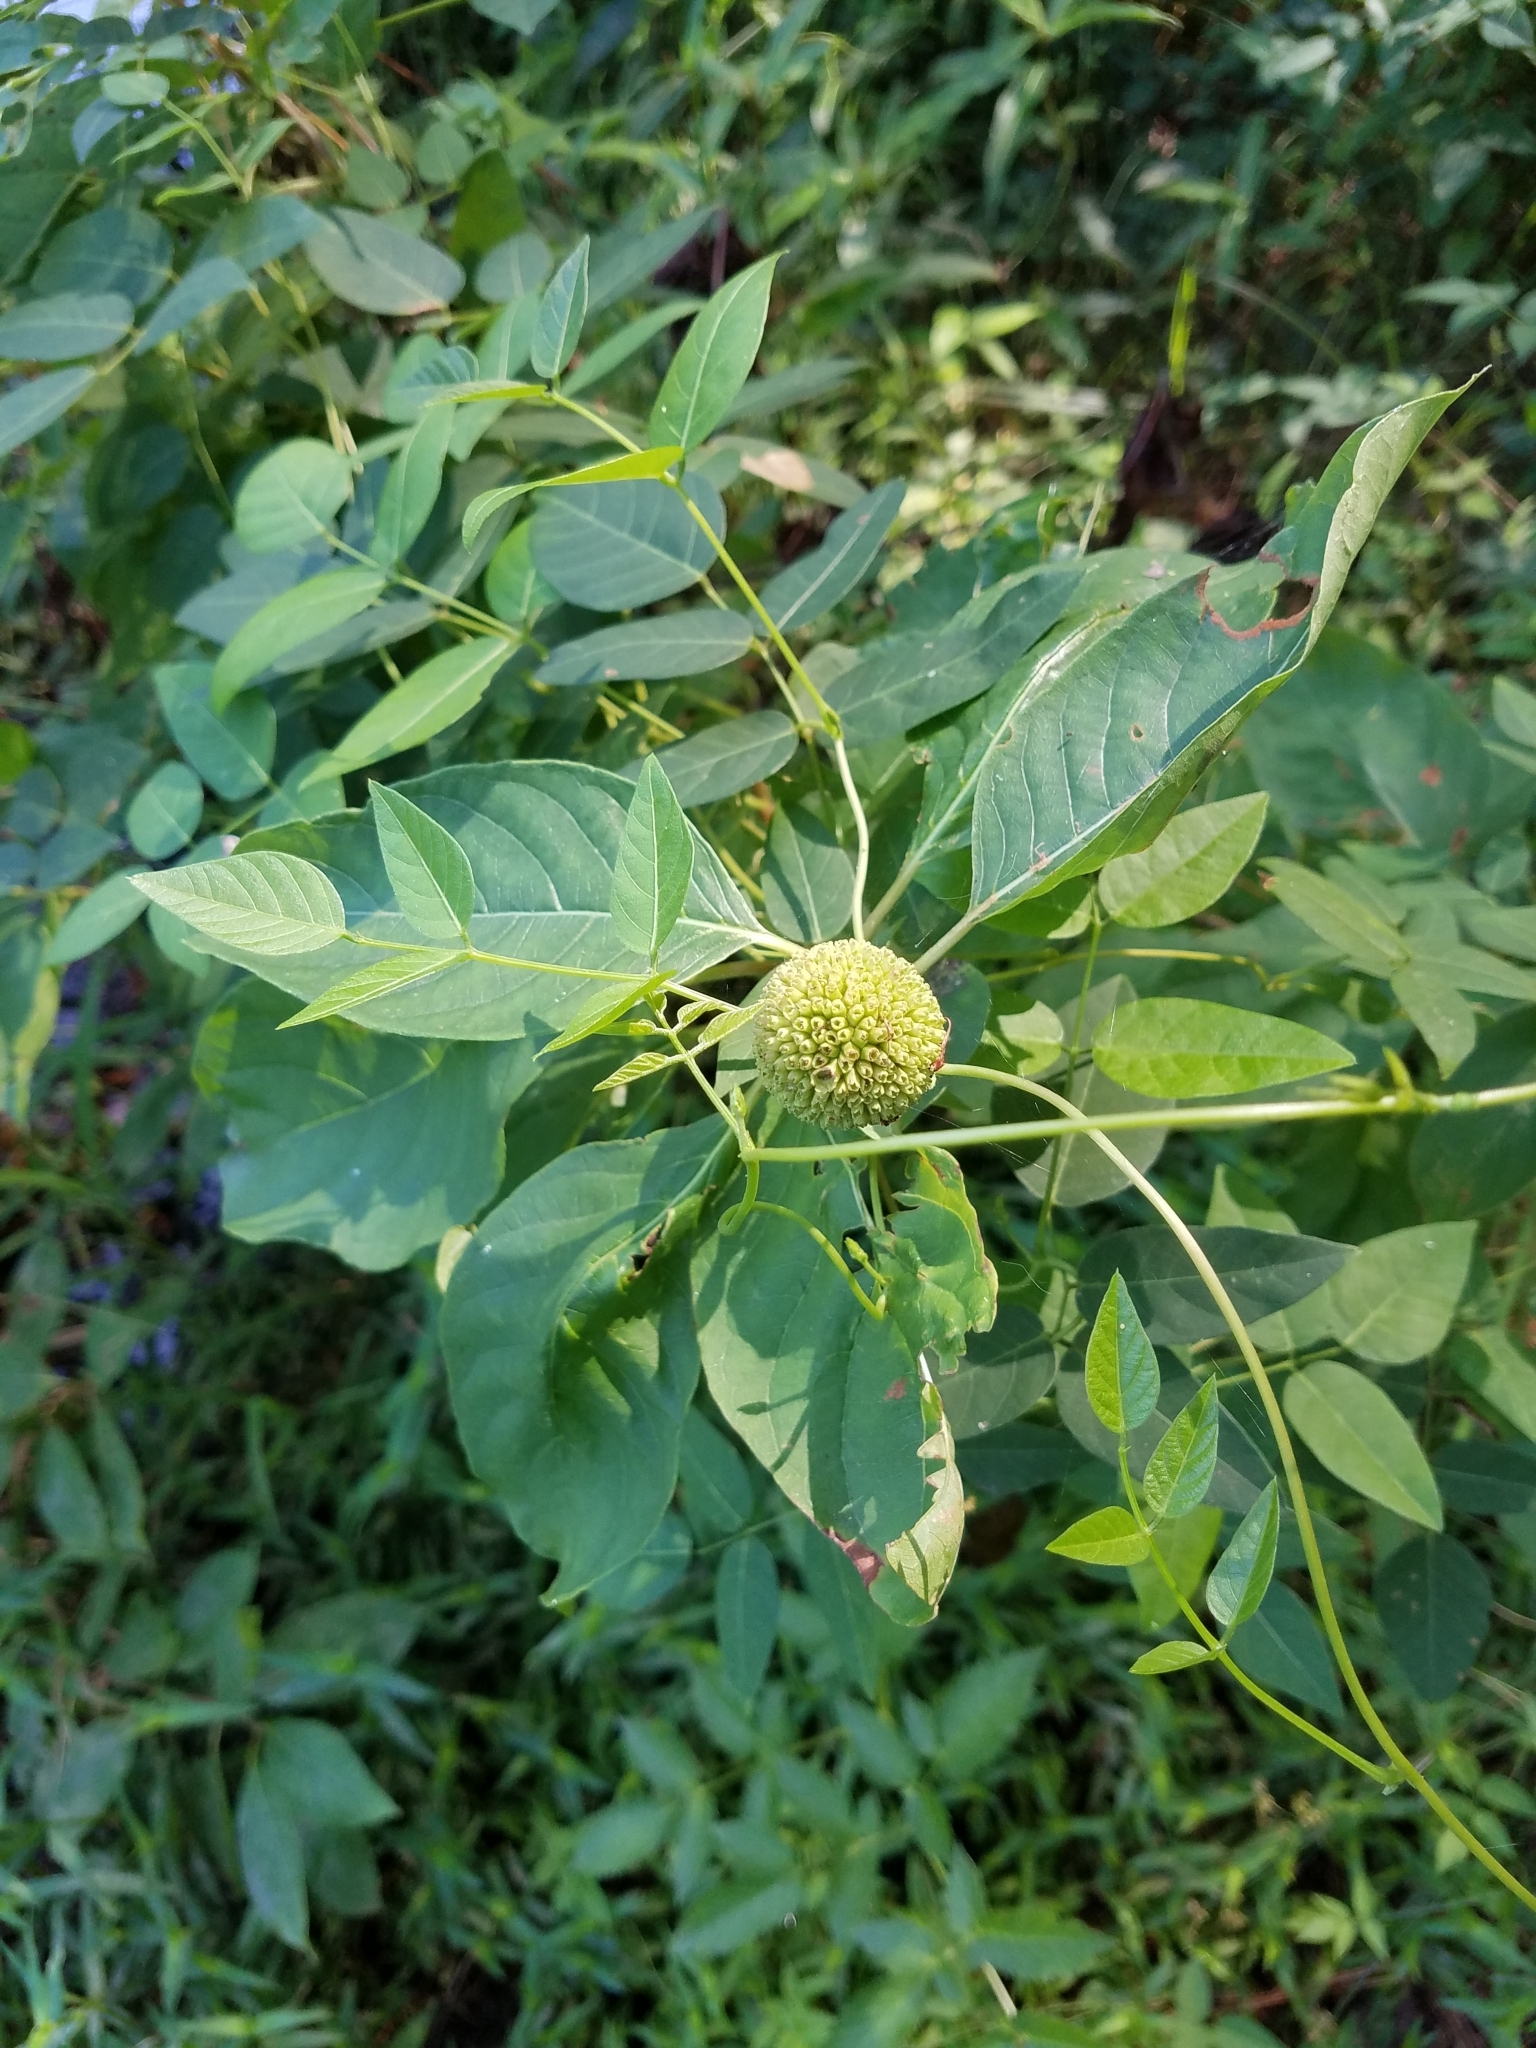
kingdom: Plantae
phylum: Tracheophyta
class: Magnoliopsida
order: Gentianales
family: Rubiaceae
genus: Cephalanthus
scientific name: Cephalanthus occidentalis
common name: Button-willow
